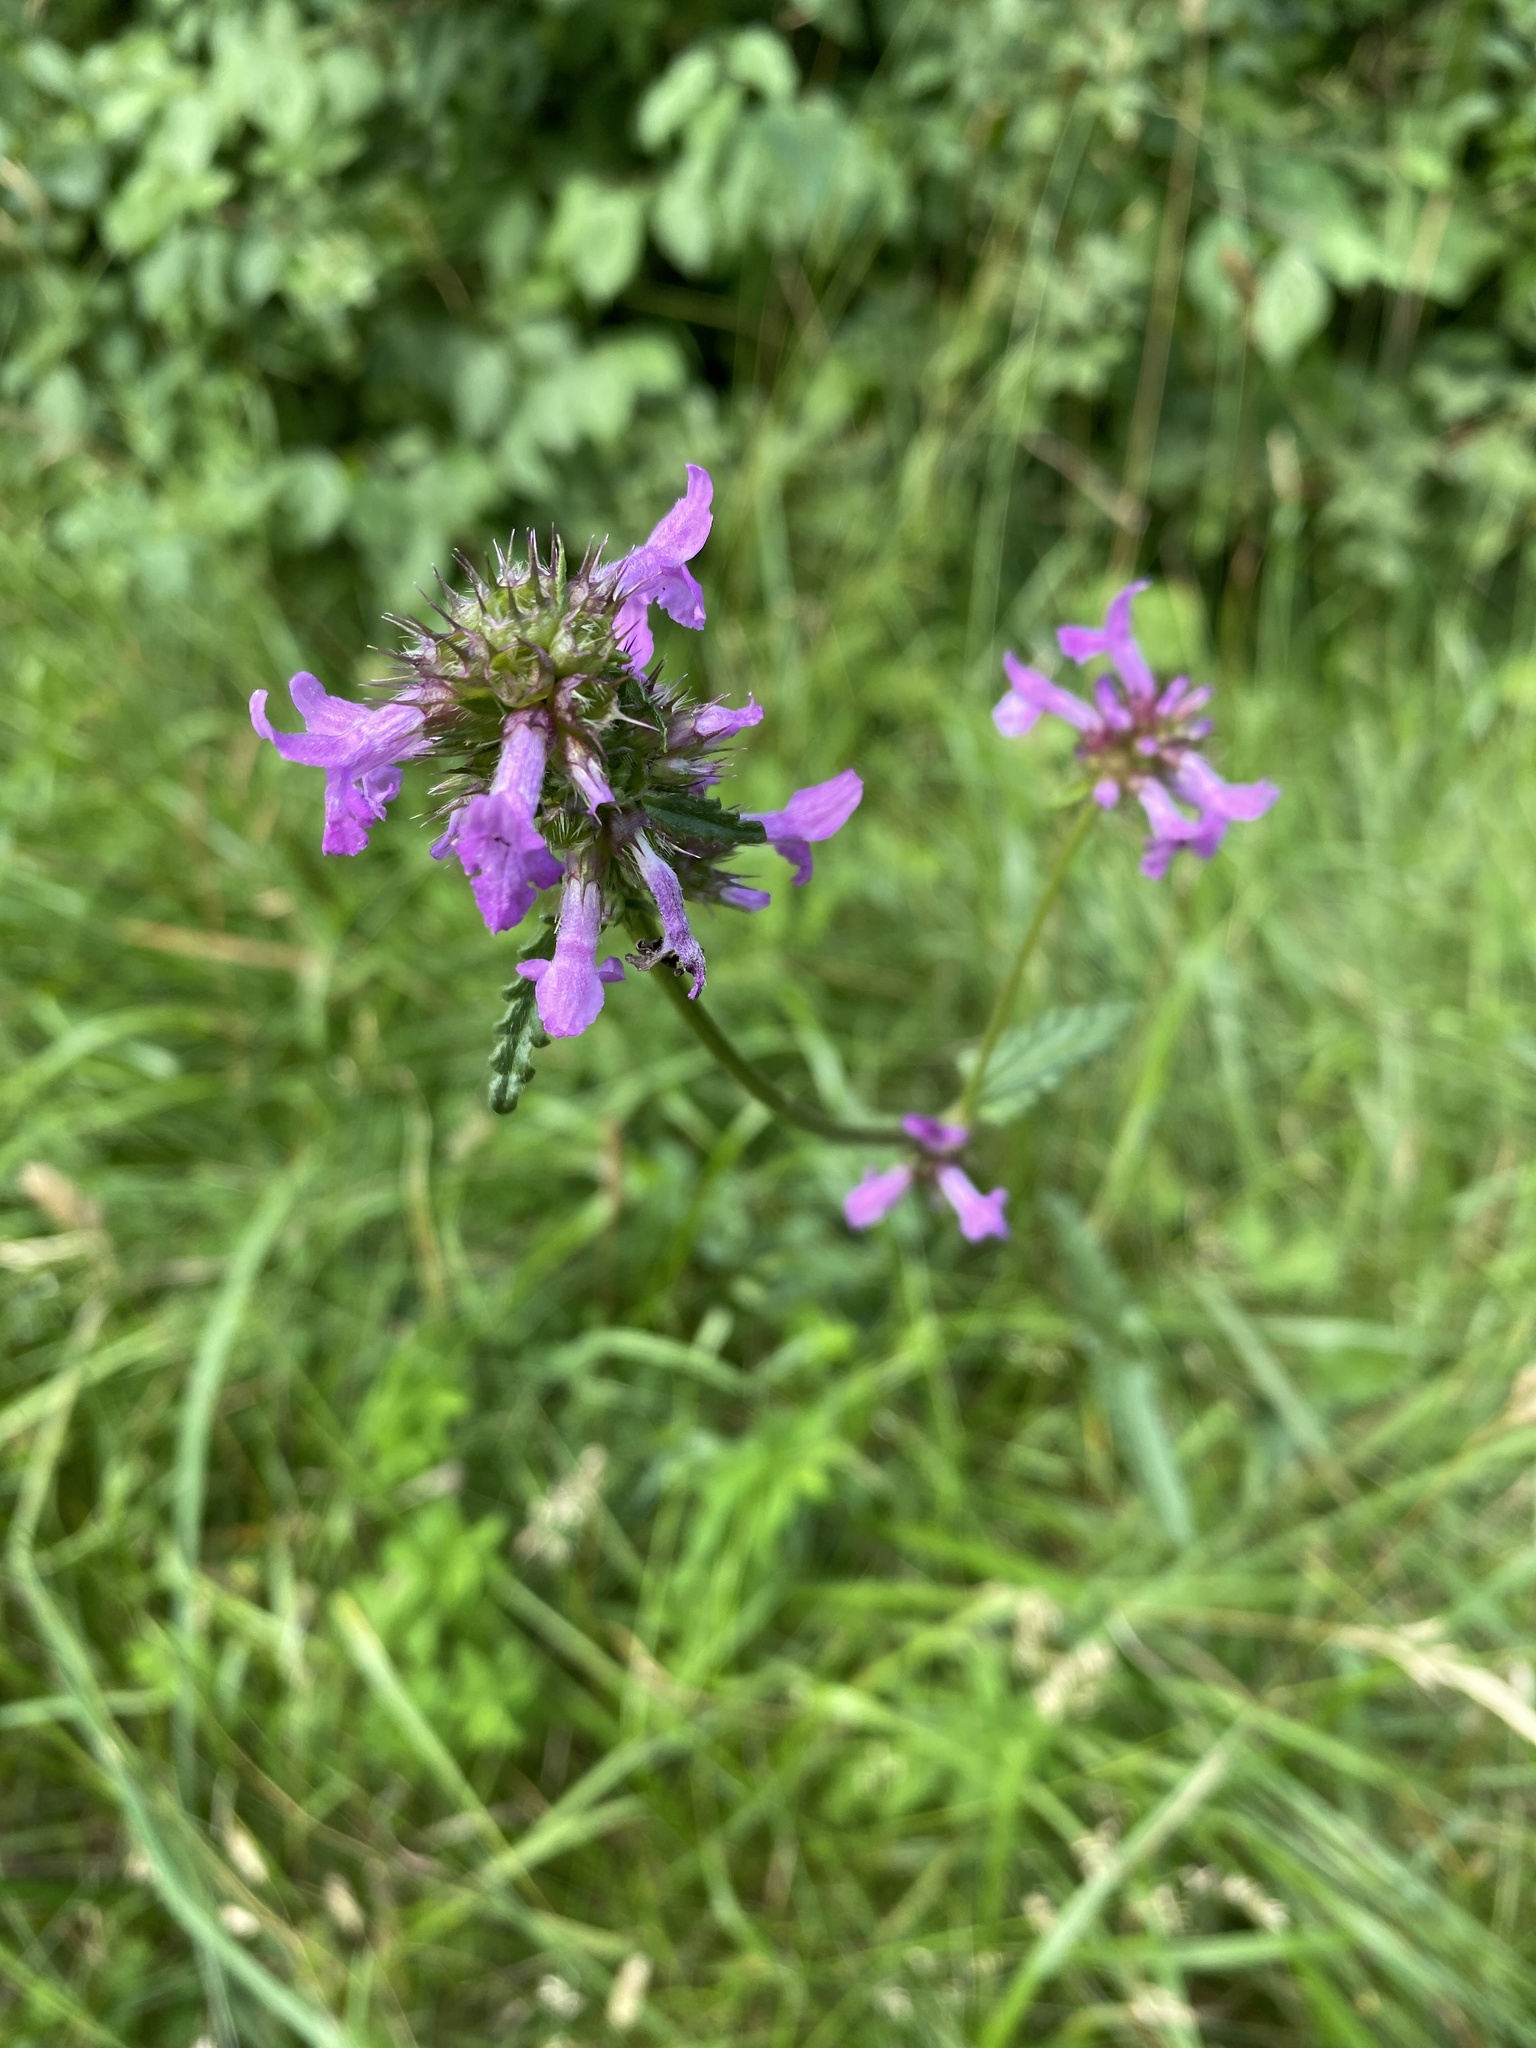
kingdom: Plantae
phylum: Tracheophyta
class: Magnoliopsida
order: Lamiales
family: Lamiaceae
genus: Betonica
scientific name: Betonica officinalis
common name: Bishop's-wort
